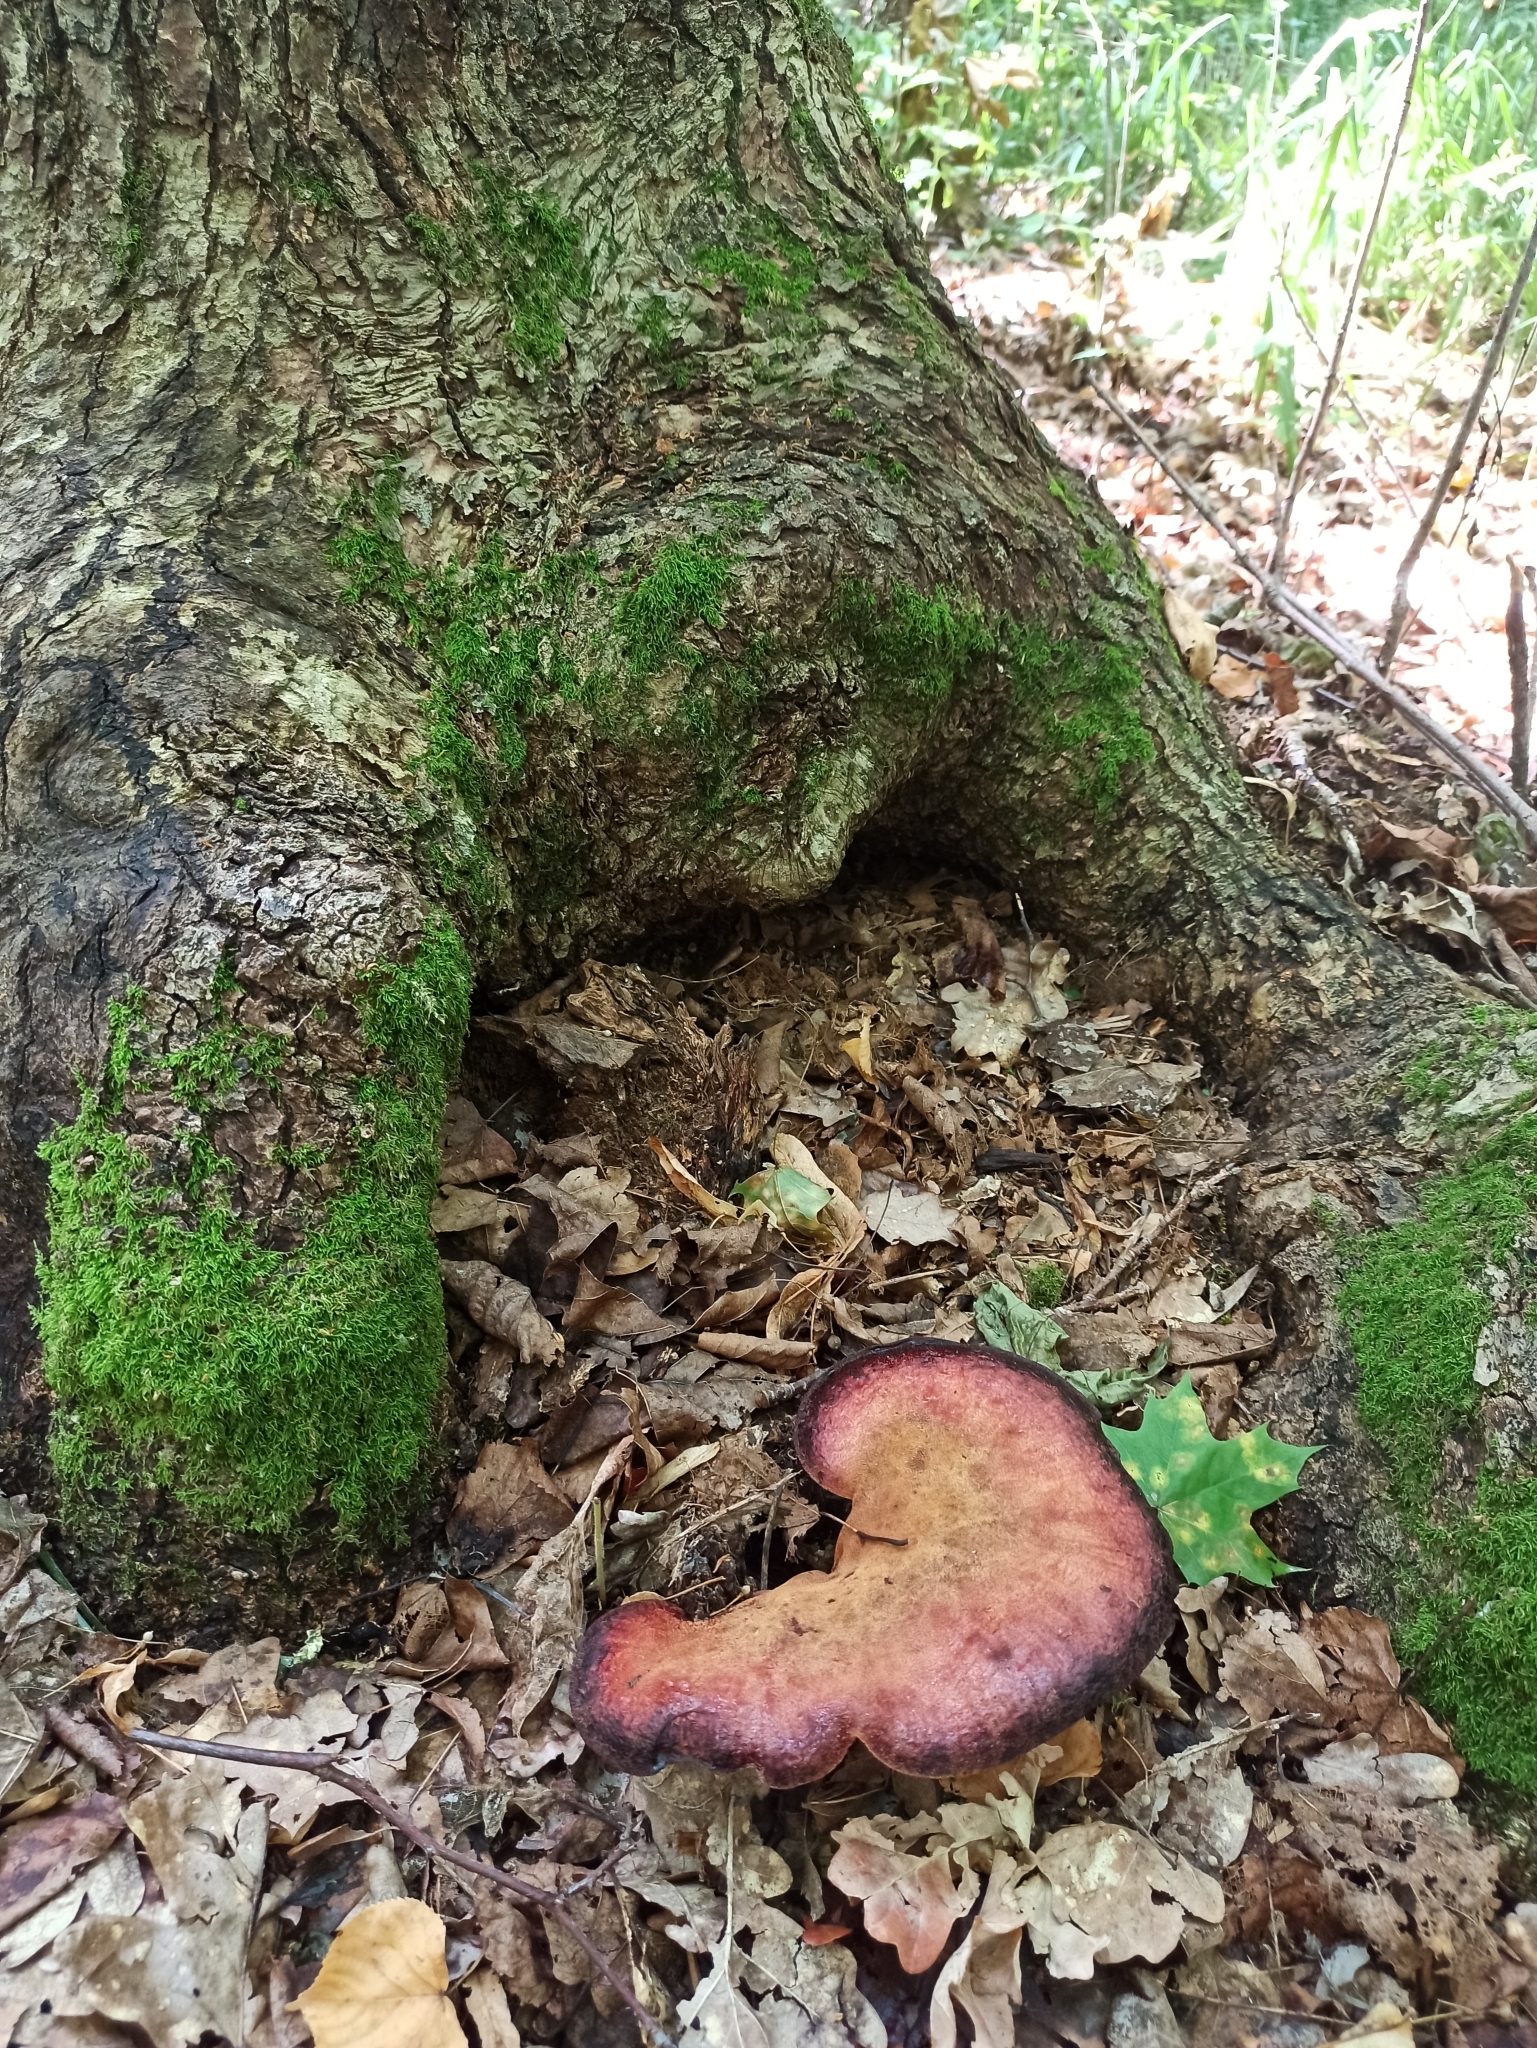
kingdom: Fungi
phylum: Basidiomycota
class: Agaricomycetes
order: Agaricales
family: Fistulinaceae
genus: Fistulina
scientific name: Fistulina hepatica
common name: Beef-steak fungus
